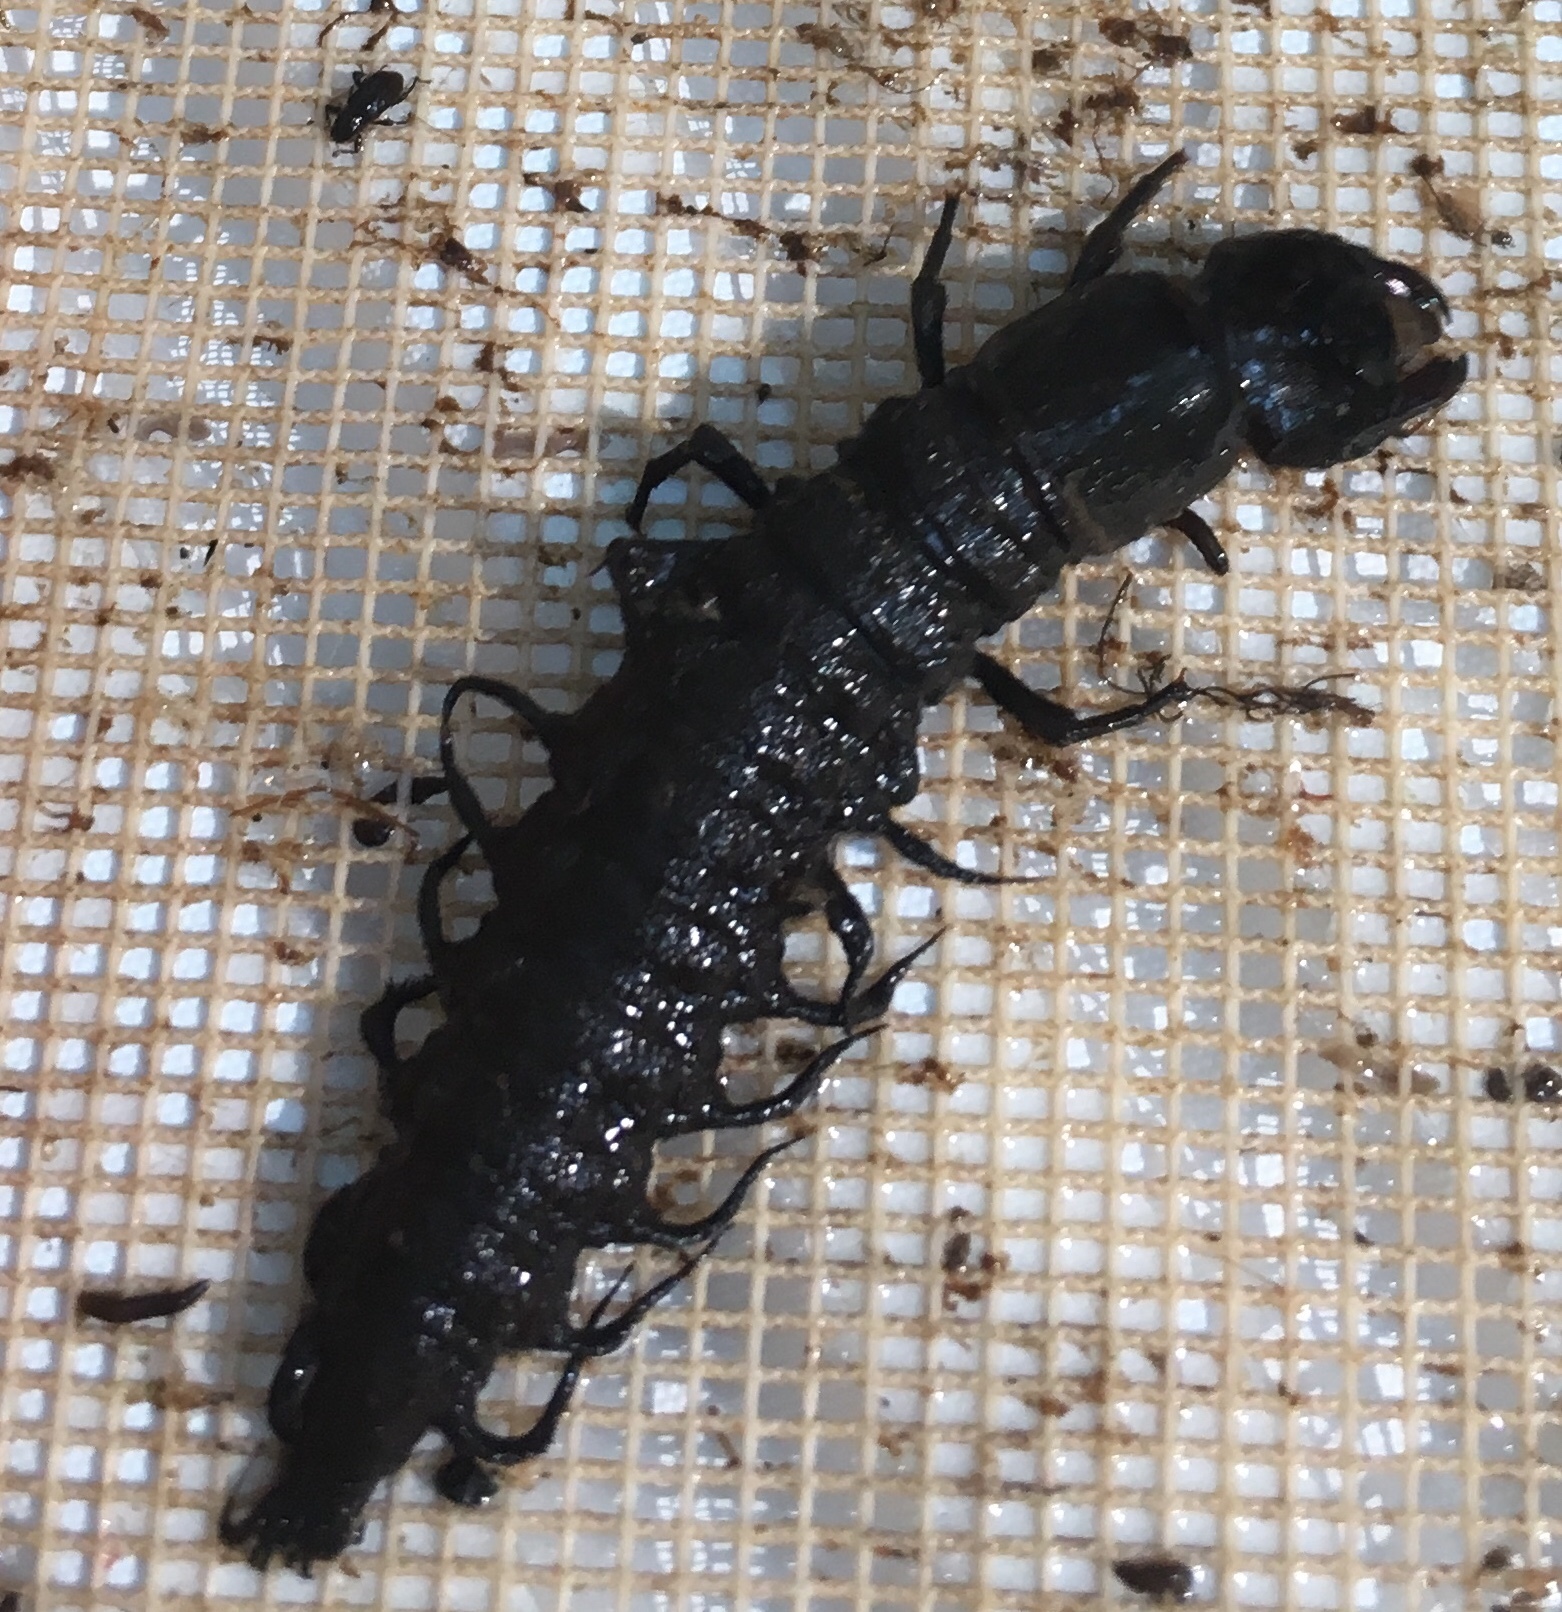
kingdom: Animalia
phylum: Arthropoda
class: Insecta
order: Megaloptera
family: Corydalidae
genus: Corydalus
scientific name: Corydalus cornutus
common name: Dobsonfly
